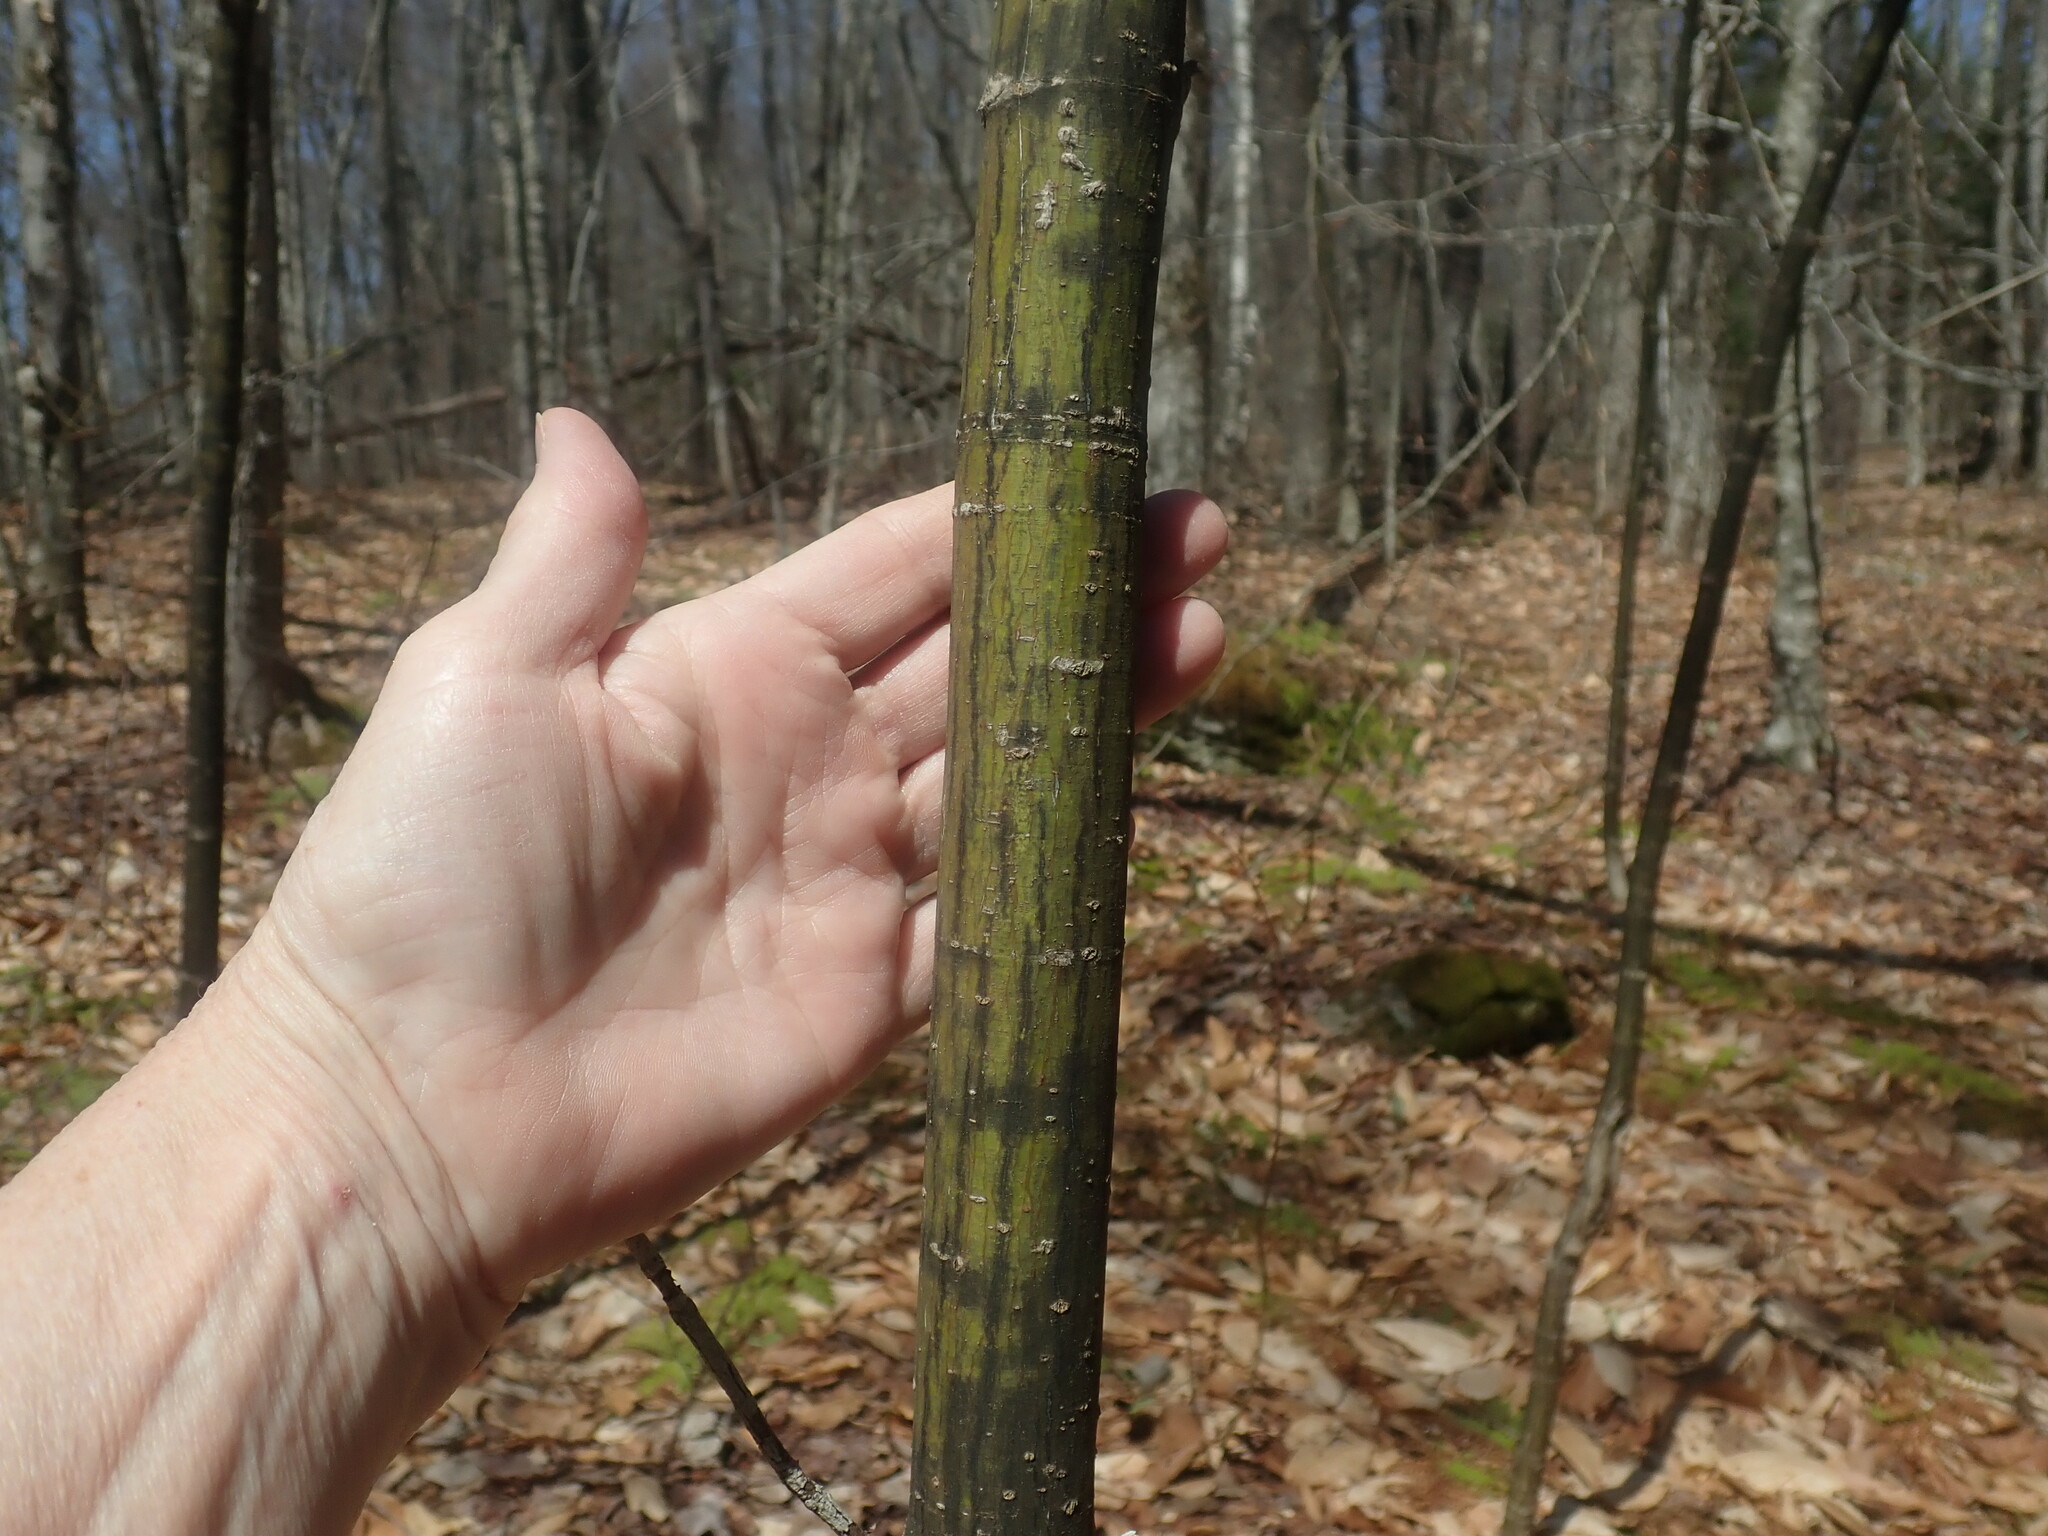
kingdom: Plantae
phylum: Tracheophyta
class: Magnoliopsida
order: Sapindales
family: Sapindaceae
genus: Acer
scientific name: Acer pensylvanicum
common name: Moosewood
